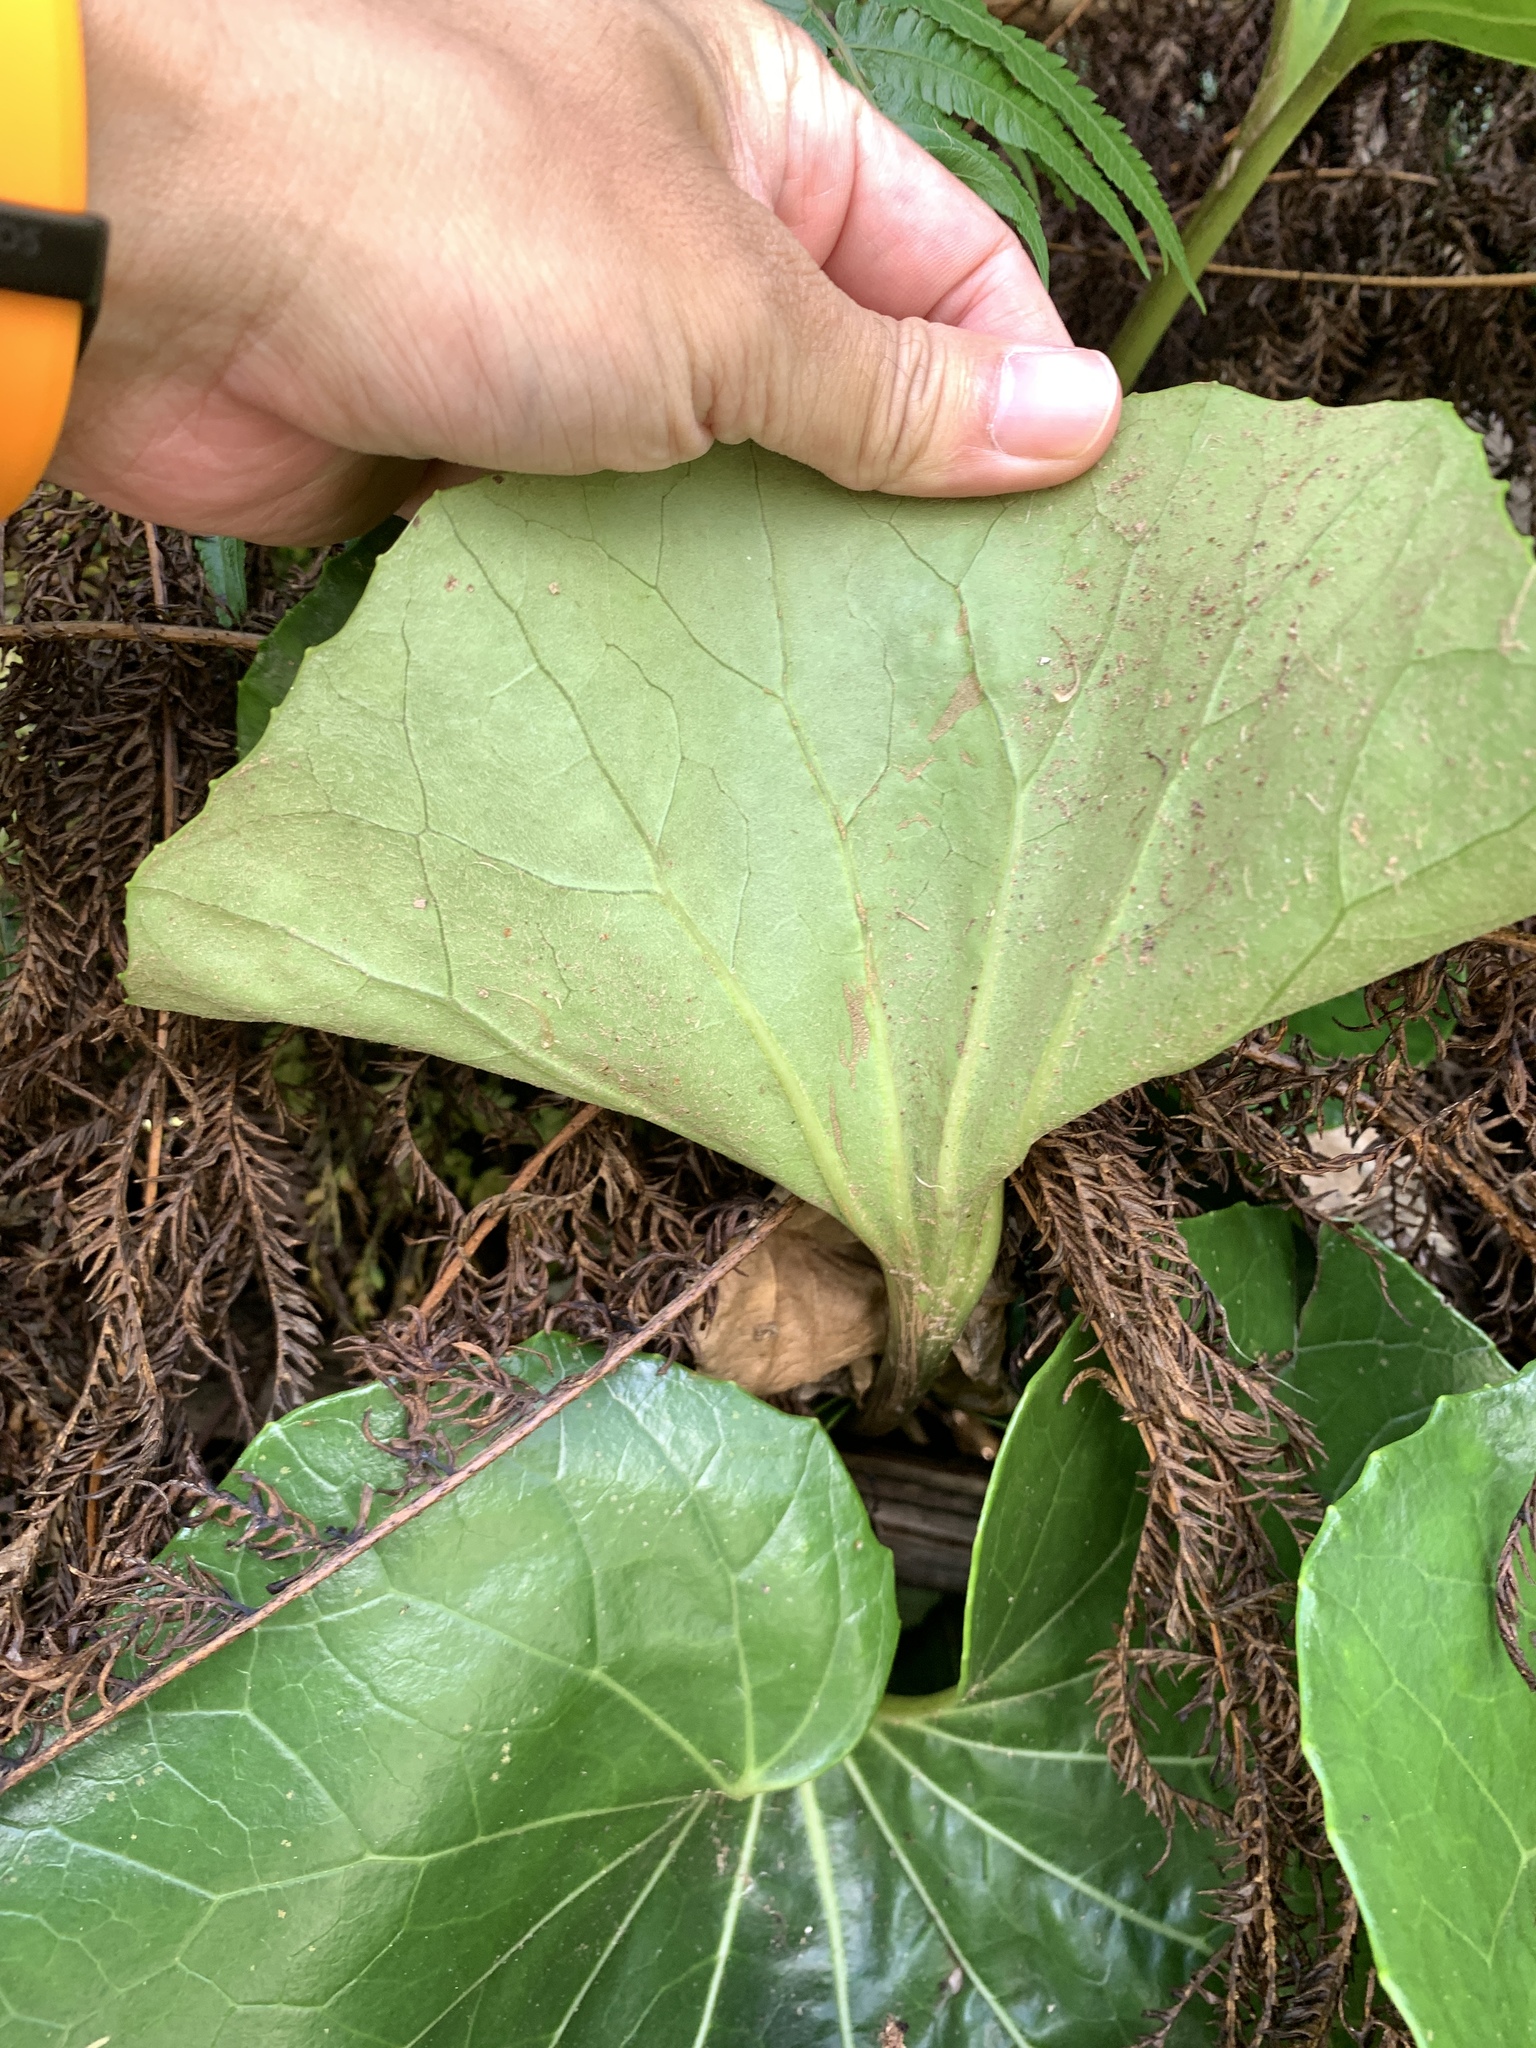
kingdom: Plantae
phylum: Tracheophyta
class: Magnoliopsida
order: Asterales
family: Asteraceae
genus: Farfugium
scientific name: Farfugium japonicum
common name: Leopardplant
